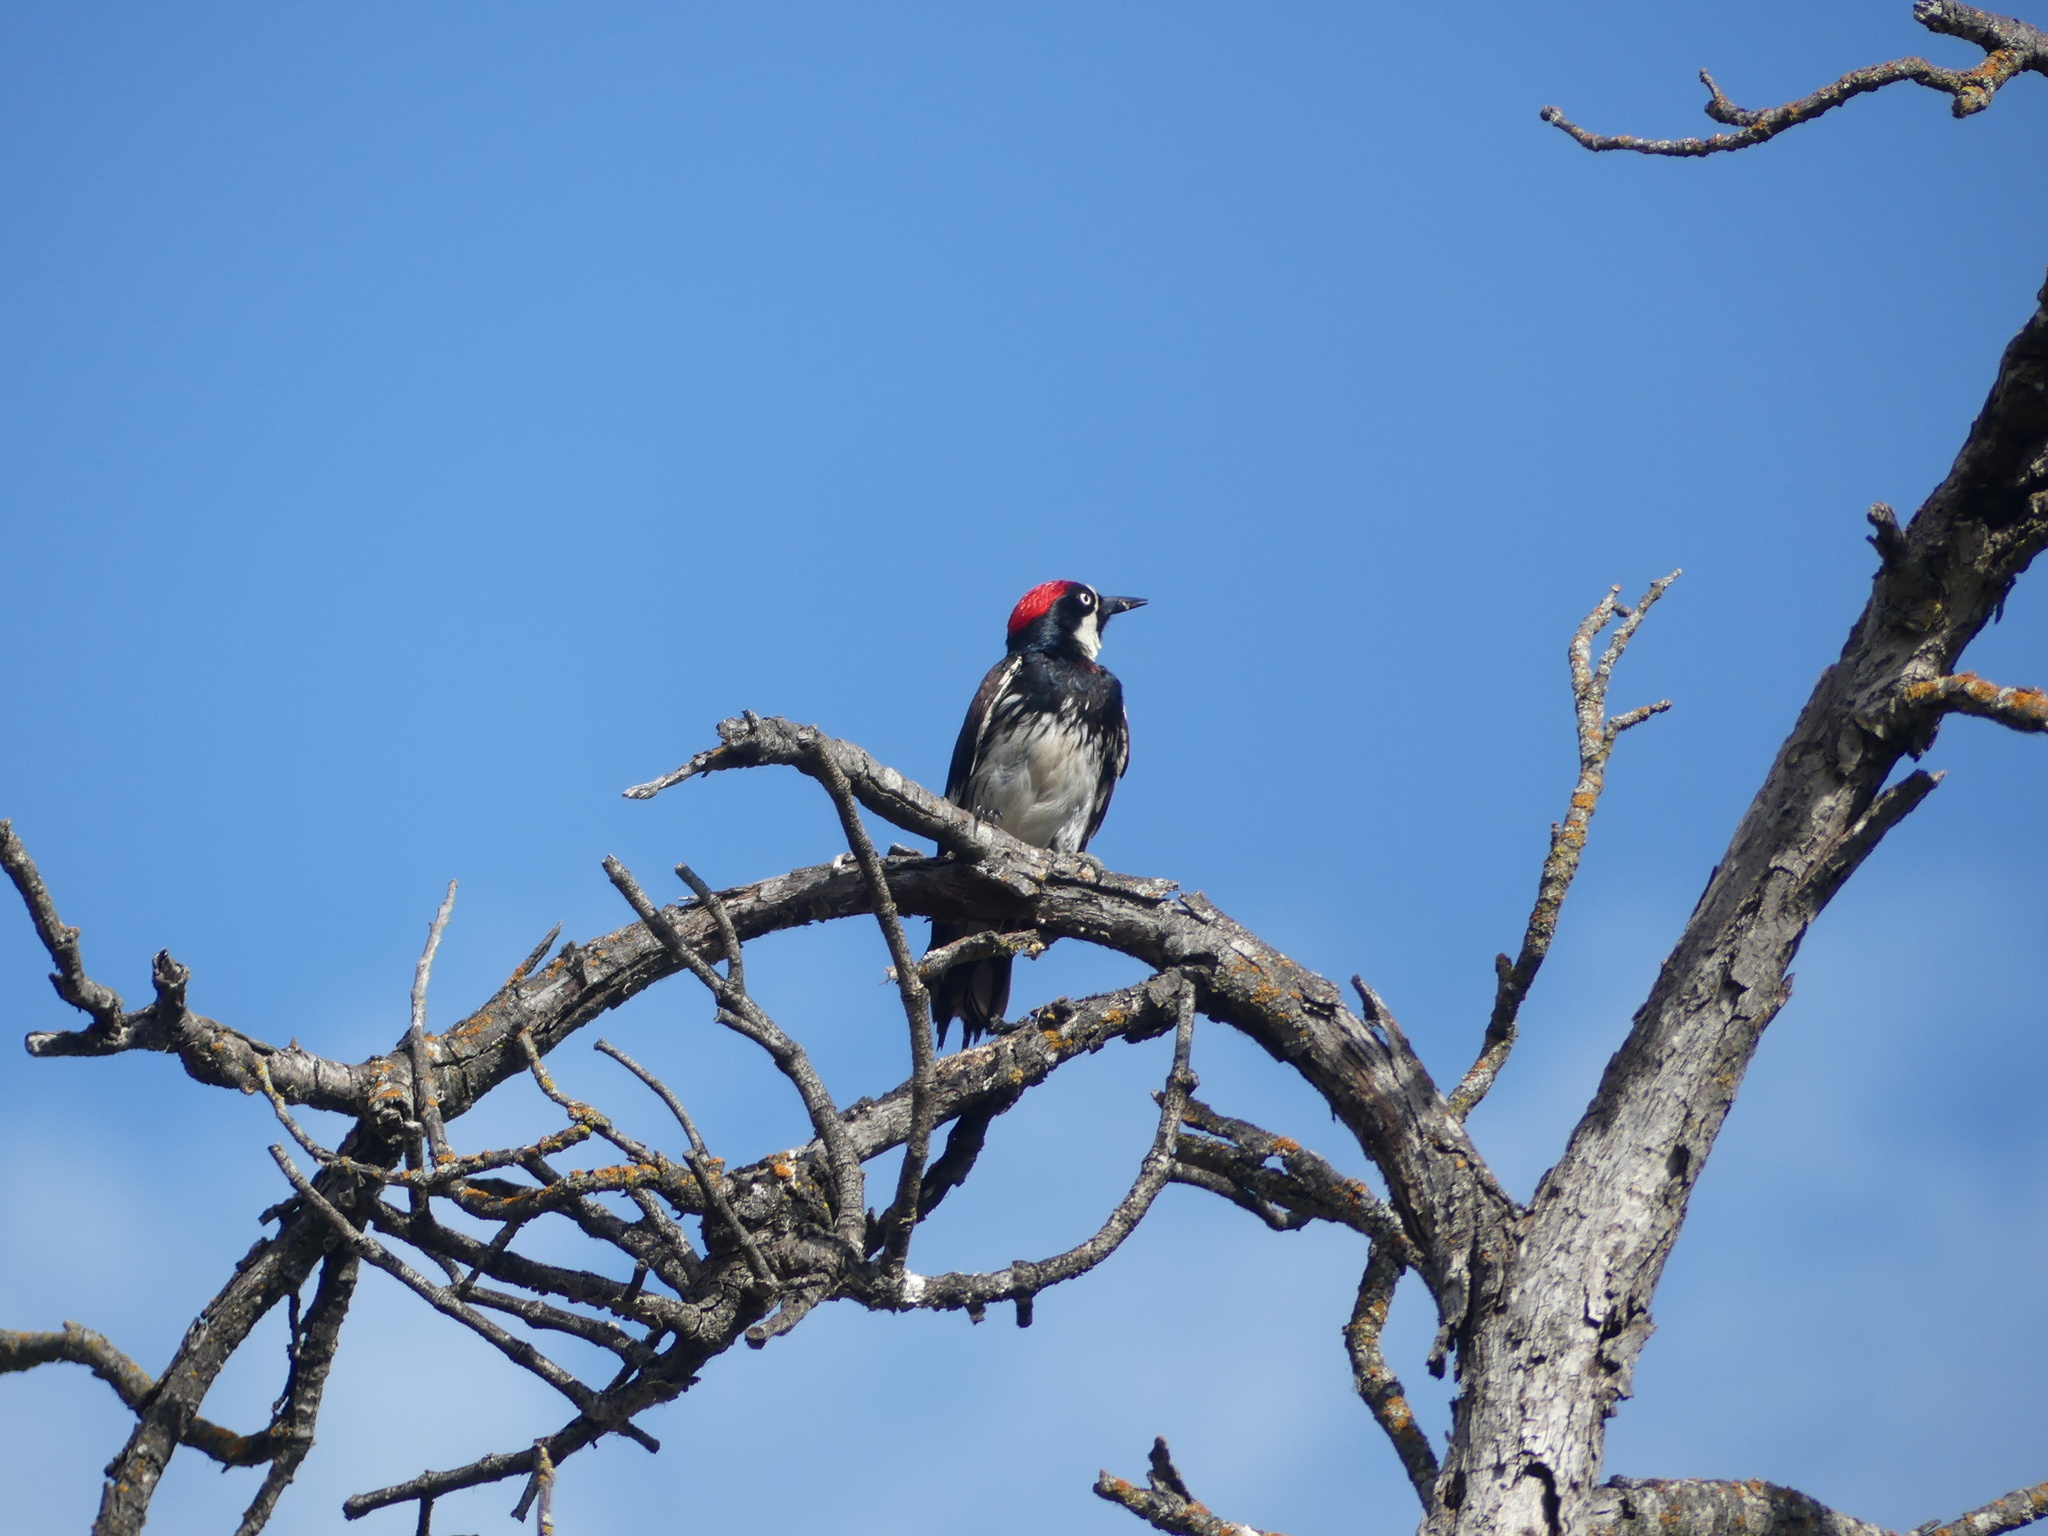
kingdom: Animalia
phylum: Chordata
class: Aves
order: Piciformes
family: Picidae
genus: Melanerpes
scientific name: Melanerpes formicivorus
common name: Acorn woodpecker
